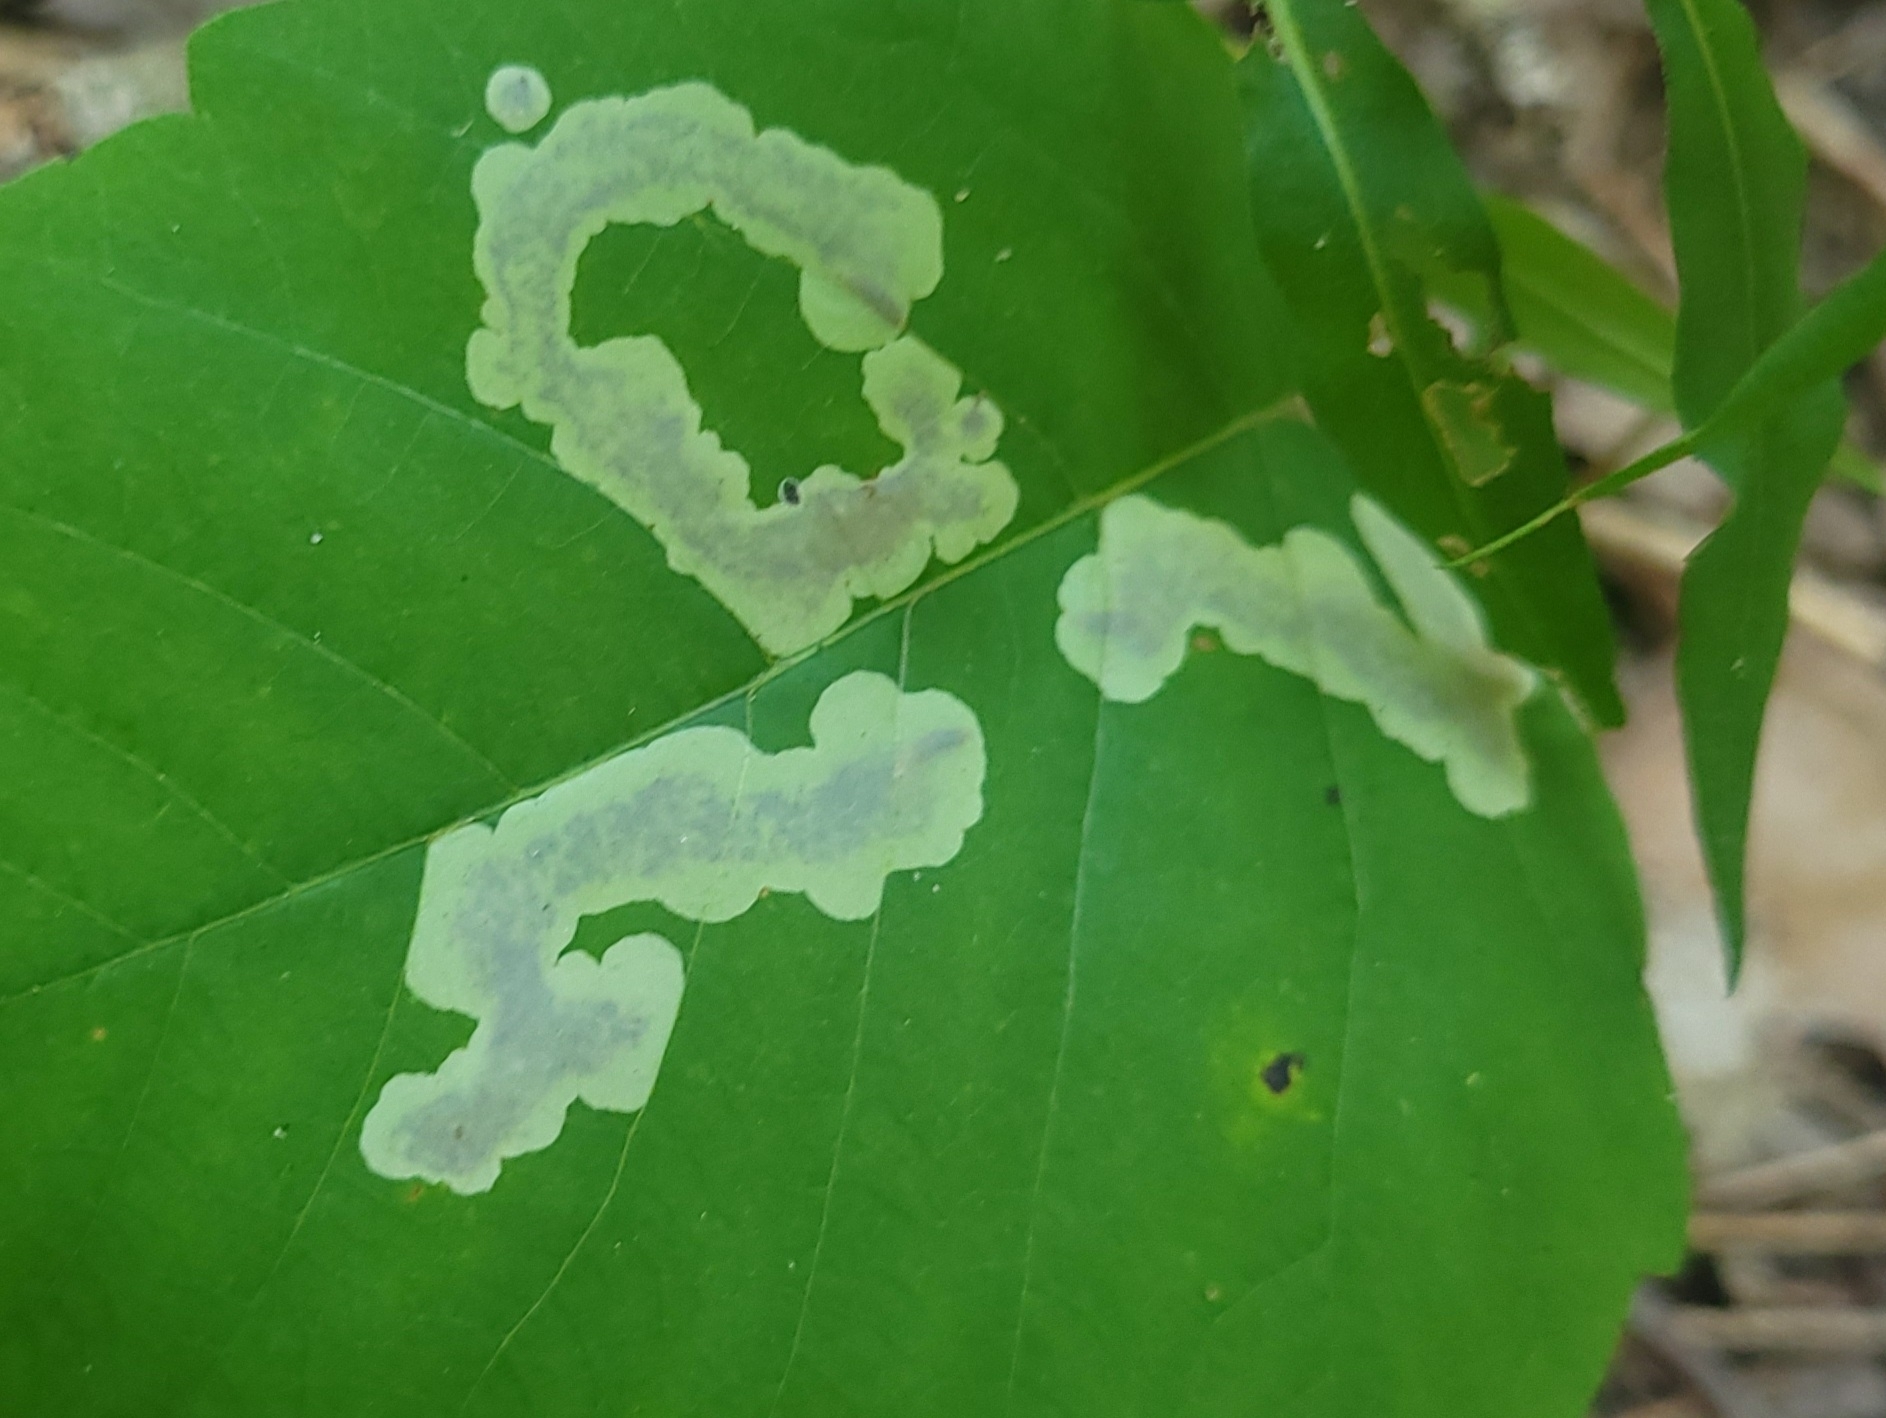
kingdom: Animalia
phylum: Arthropoda
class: Insecta
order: Lepidoptera
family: Gracillariidae
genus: Cameraria
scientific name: Cameraria guttifinitella
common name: Poison ivy leaf-miner moth
